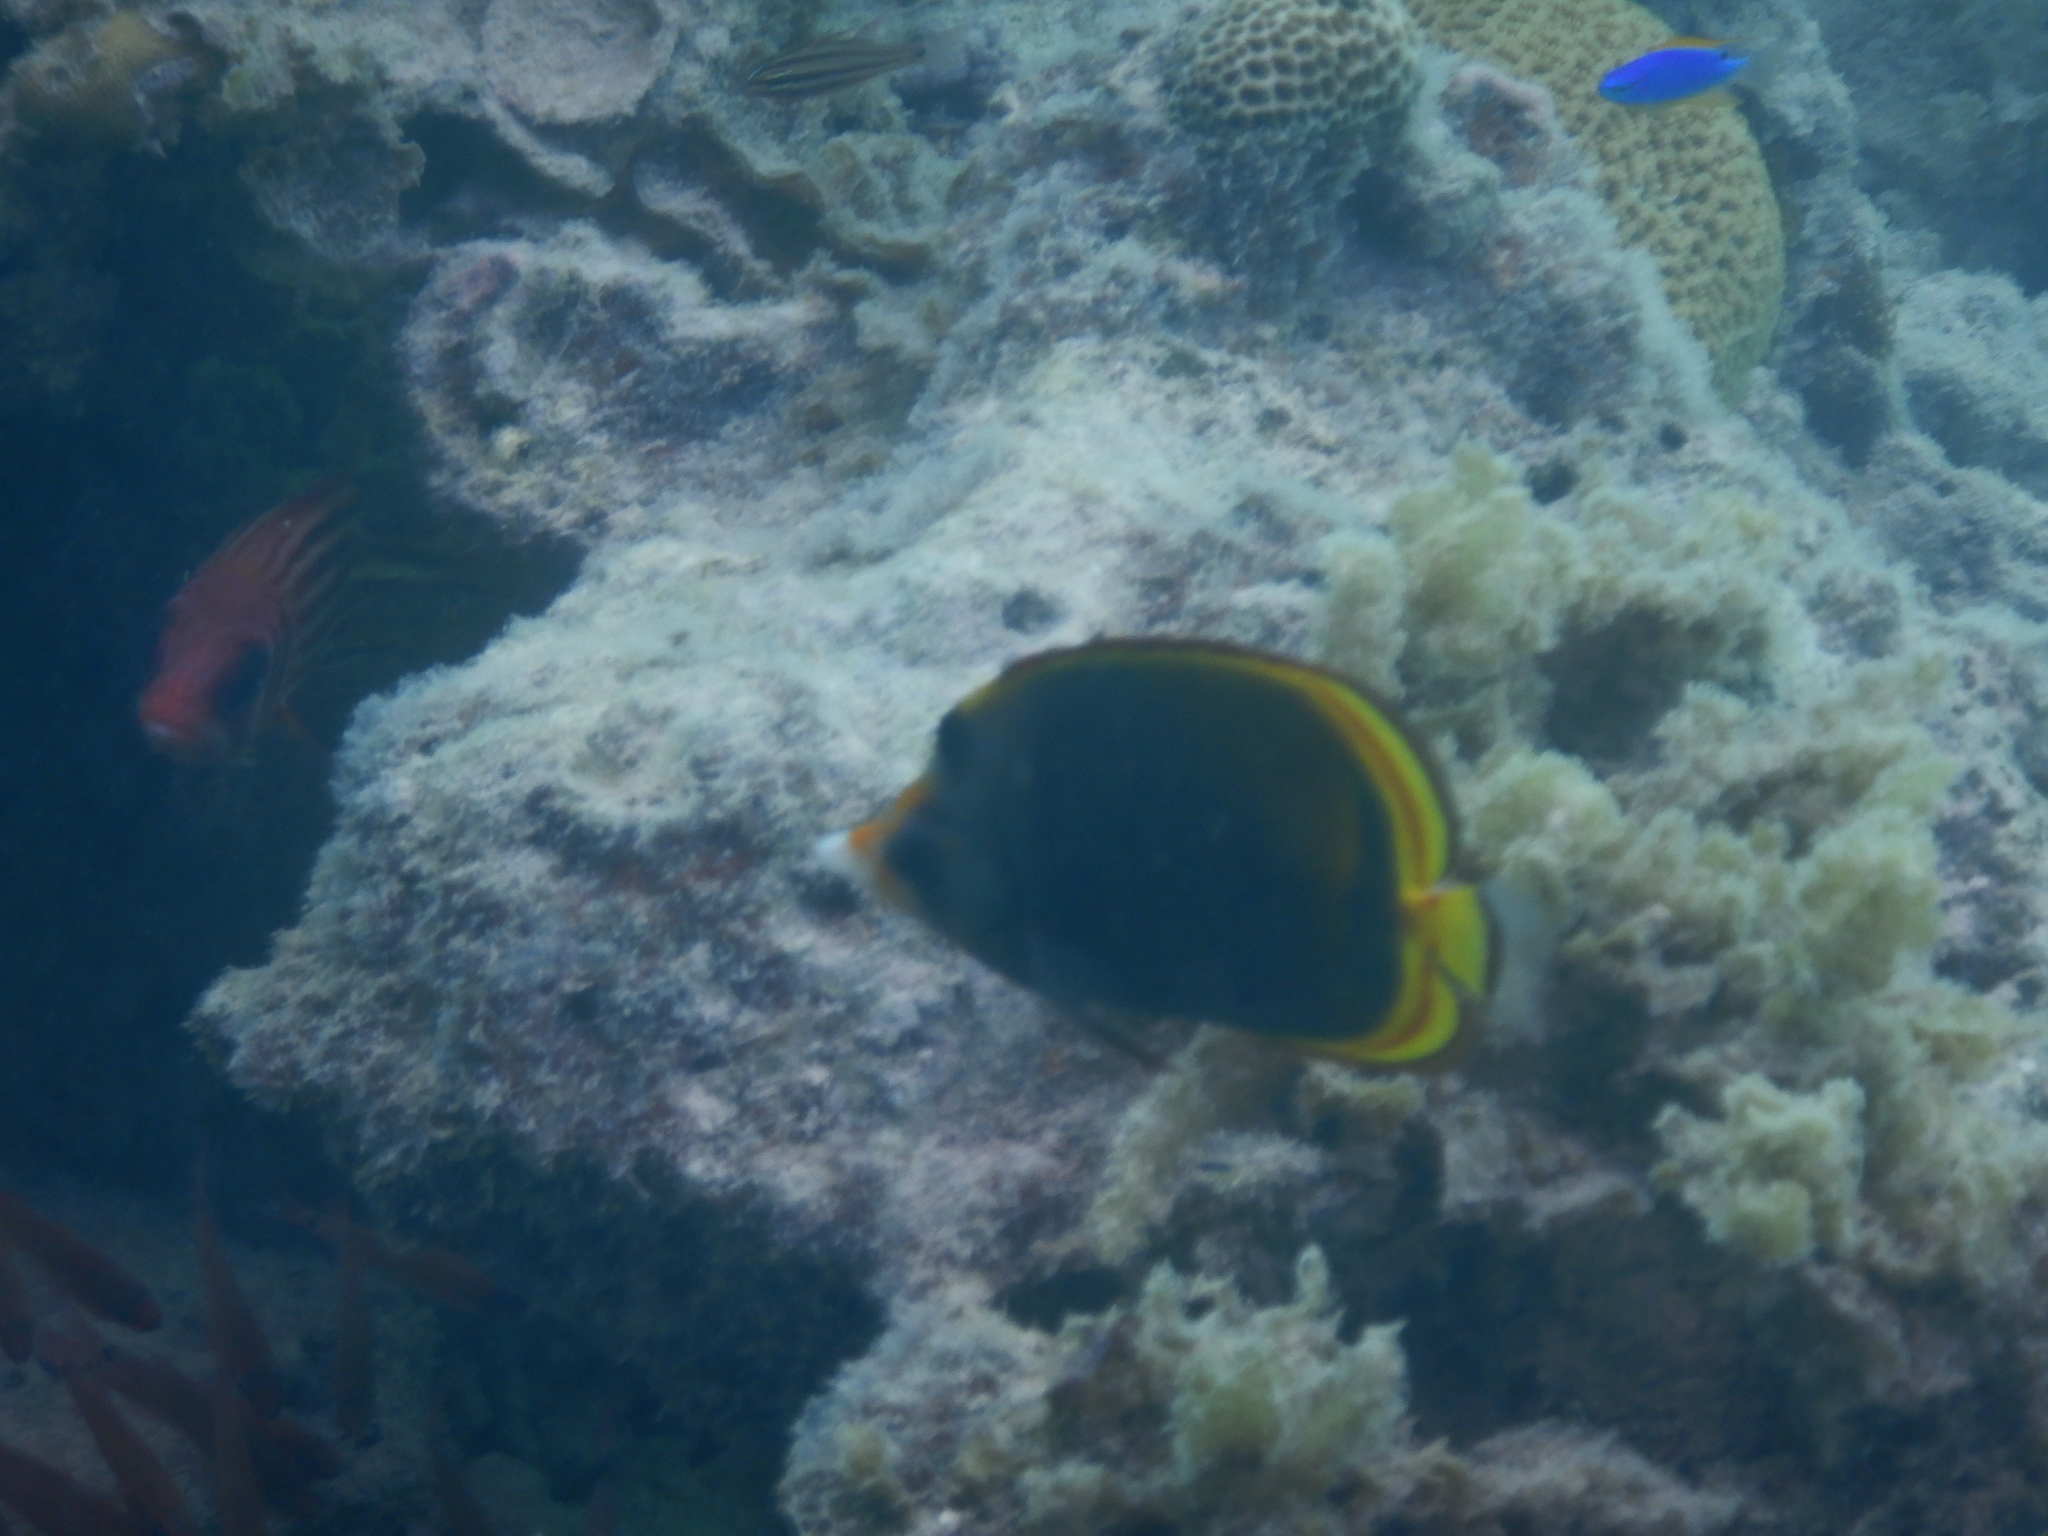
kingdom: Animalia
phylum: Chordata
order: Perciformes
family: Chaetodontidae
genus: Chaetodon
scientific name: Chaetodon flavirostris
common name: Black butterflyfish
